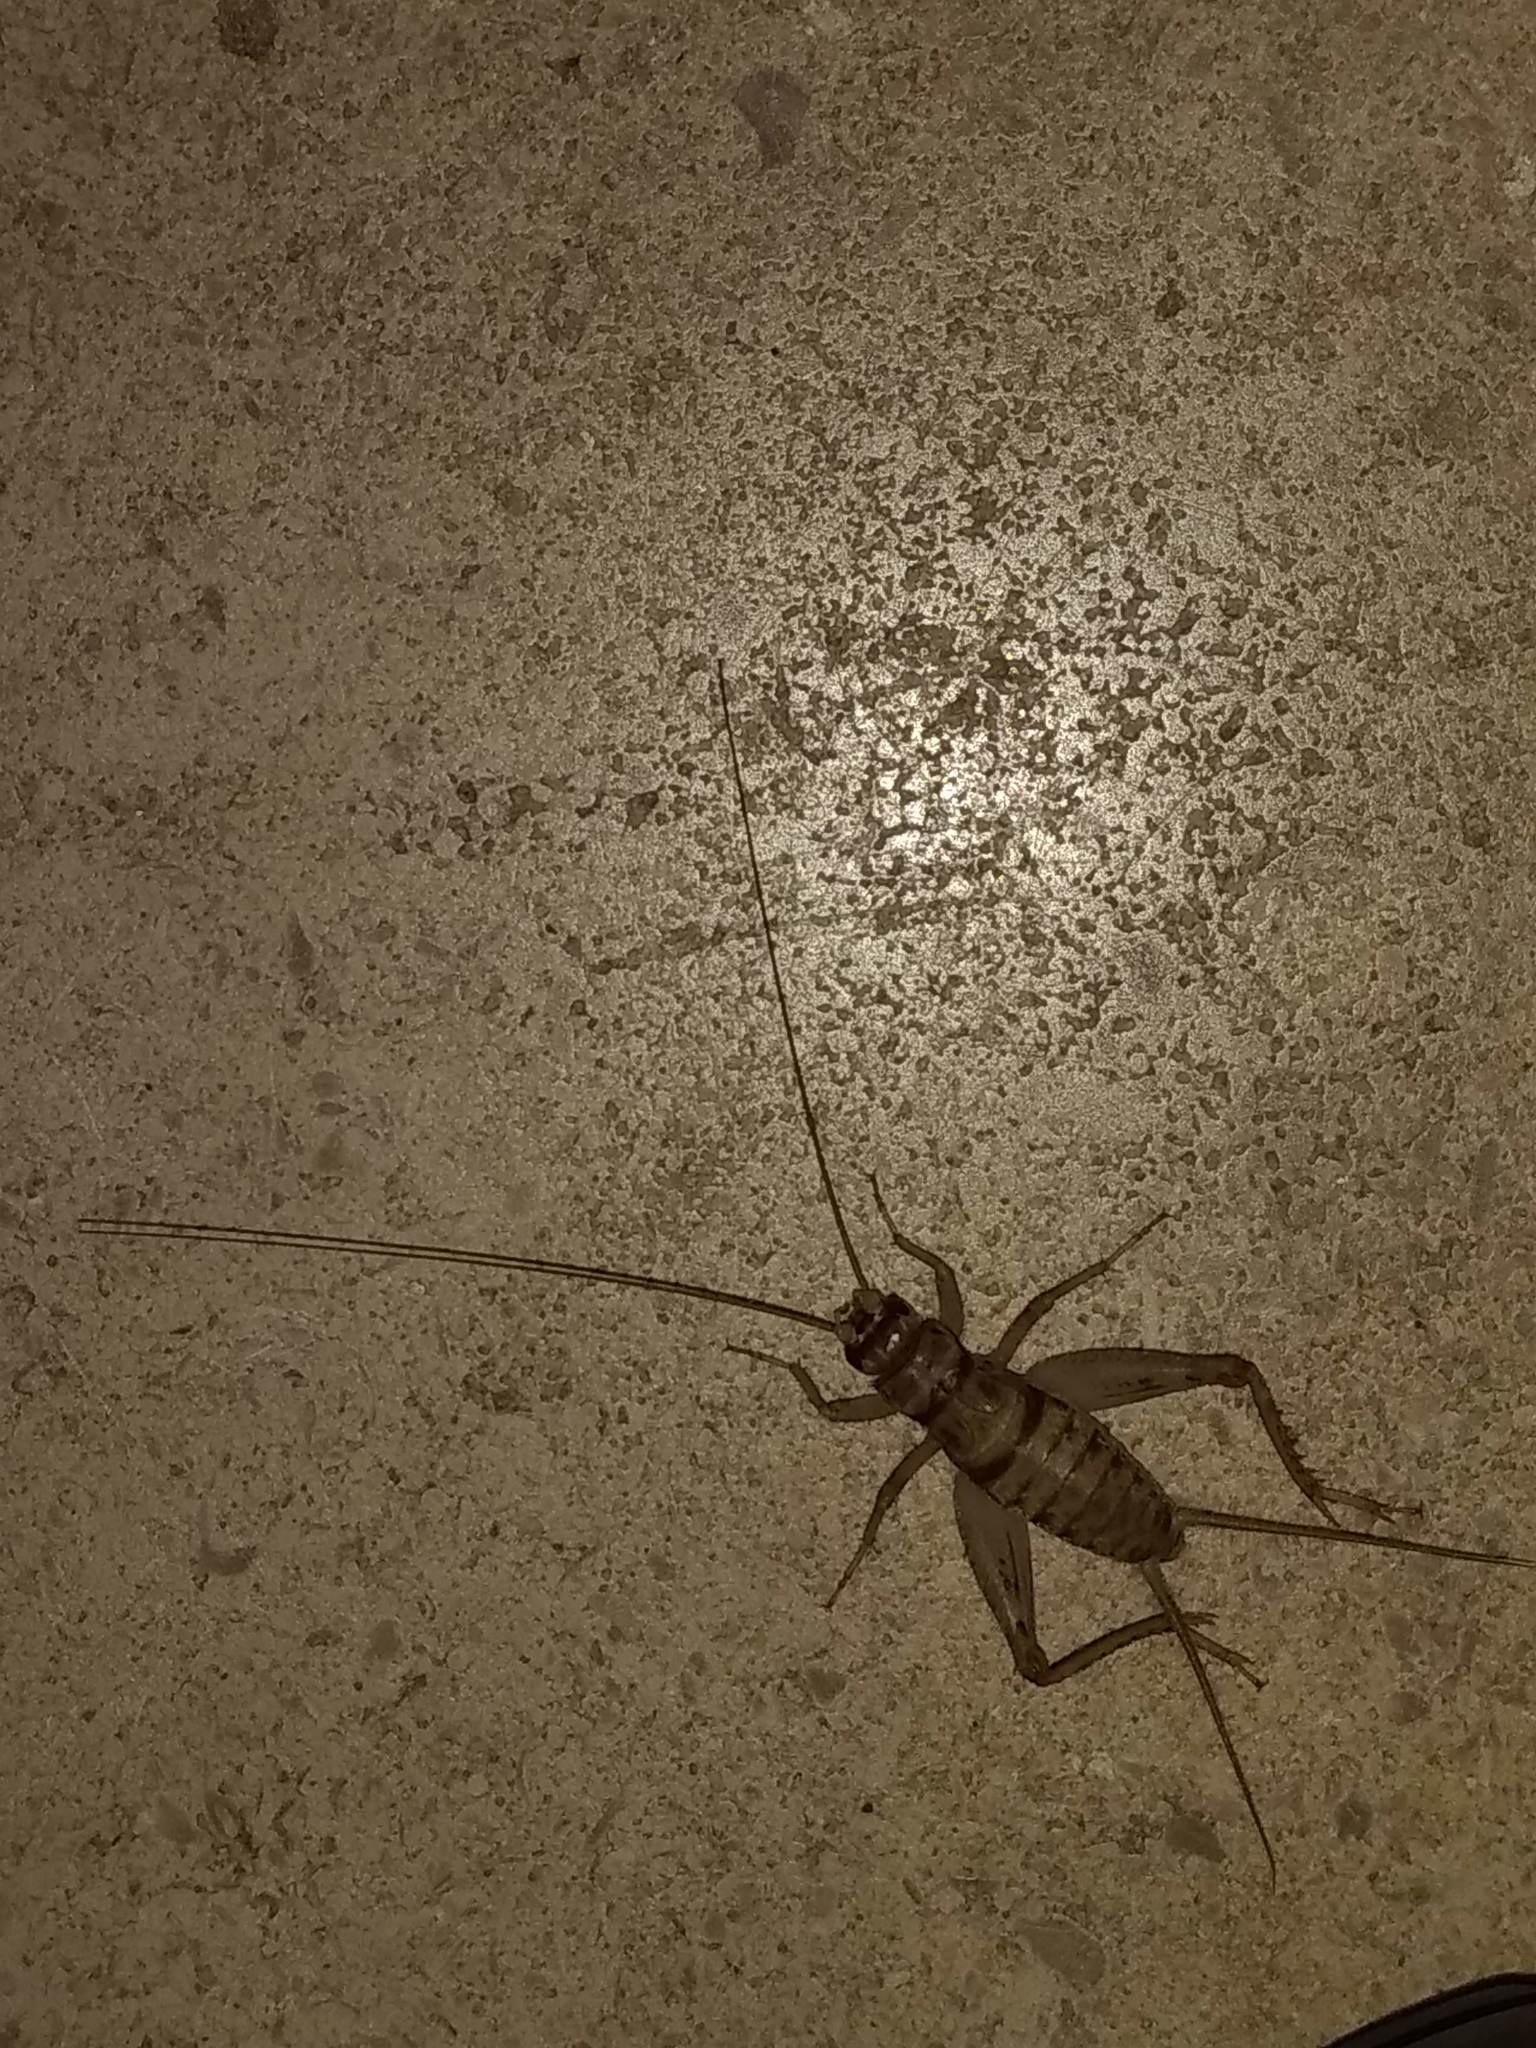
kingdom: Animalia
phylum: Arthropoda
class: Insecta
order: Orthoptera
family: Gryllidae
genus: Gryllodes
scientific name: Gryllodes sigillatus
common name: Tropical house cricket
